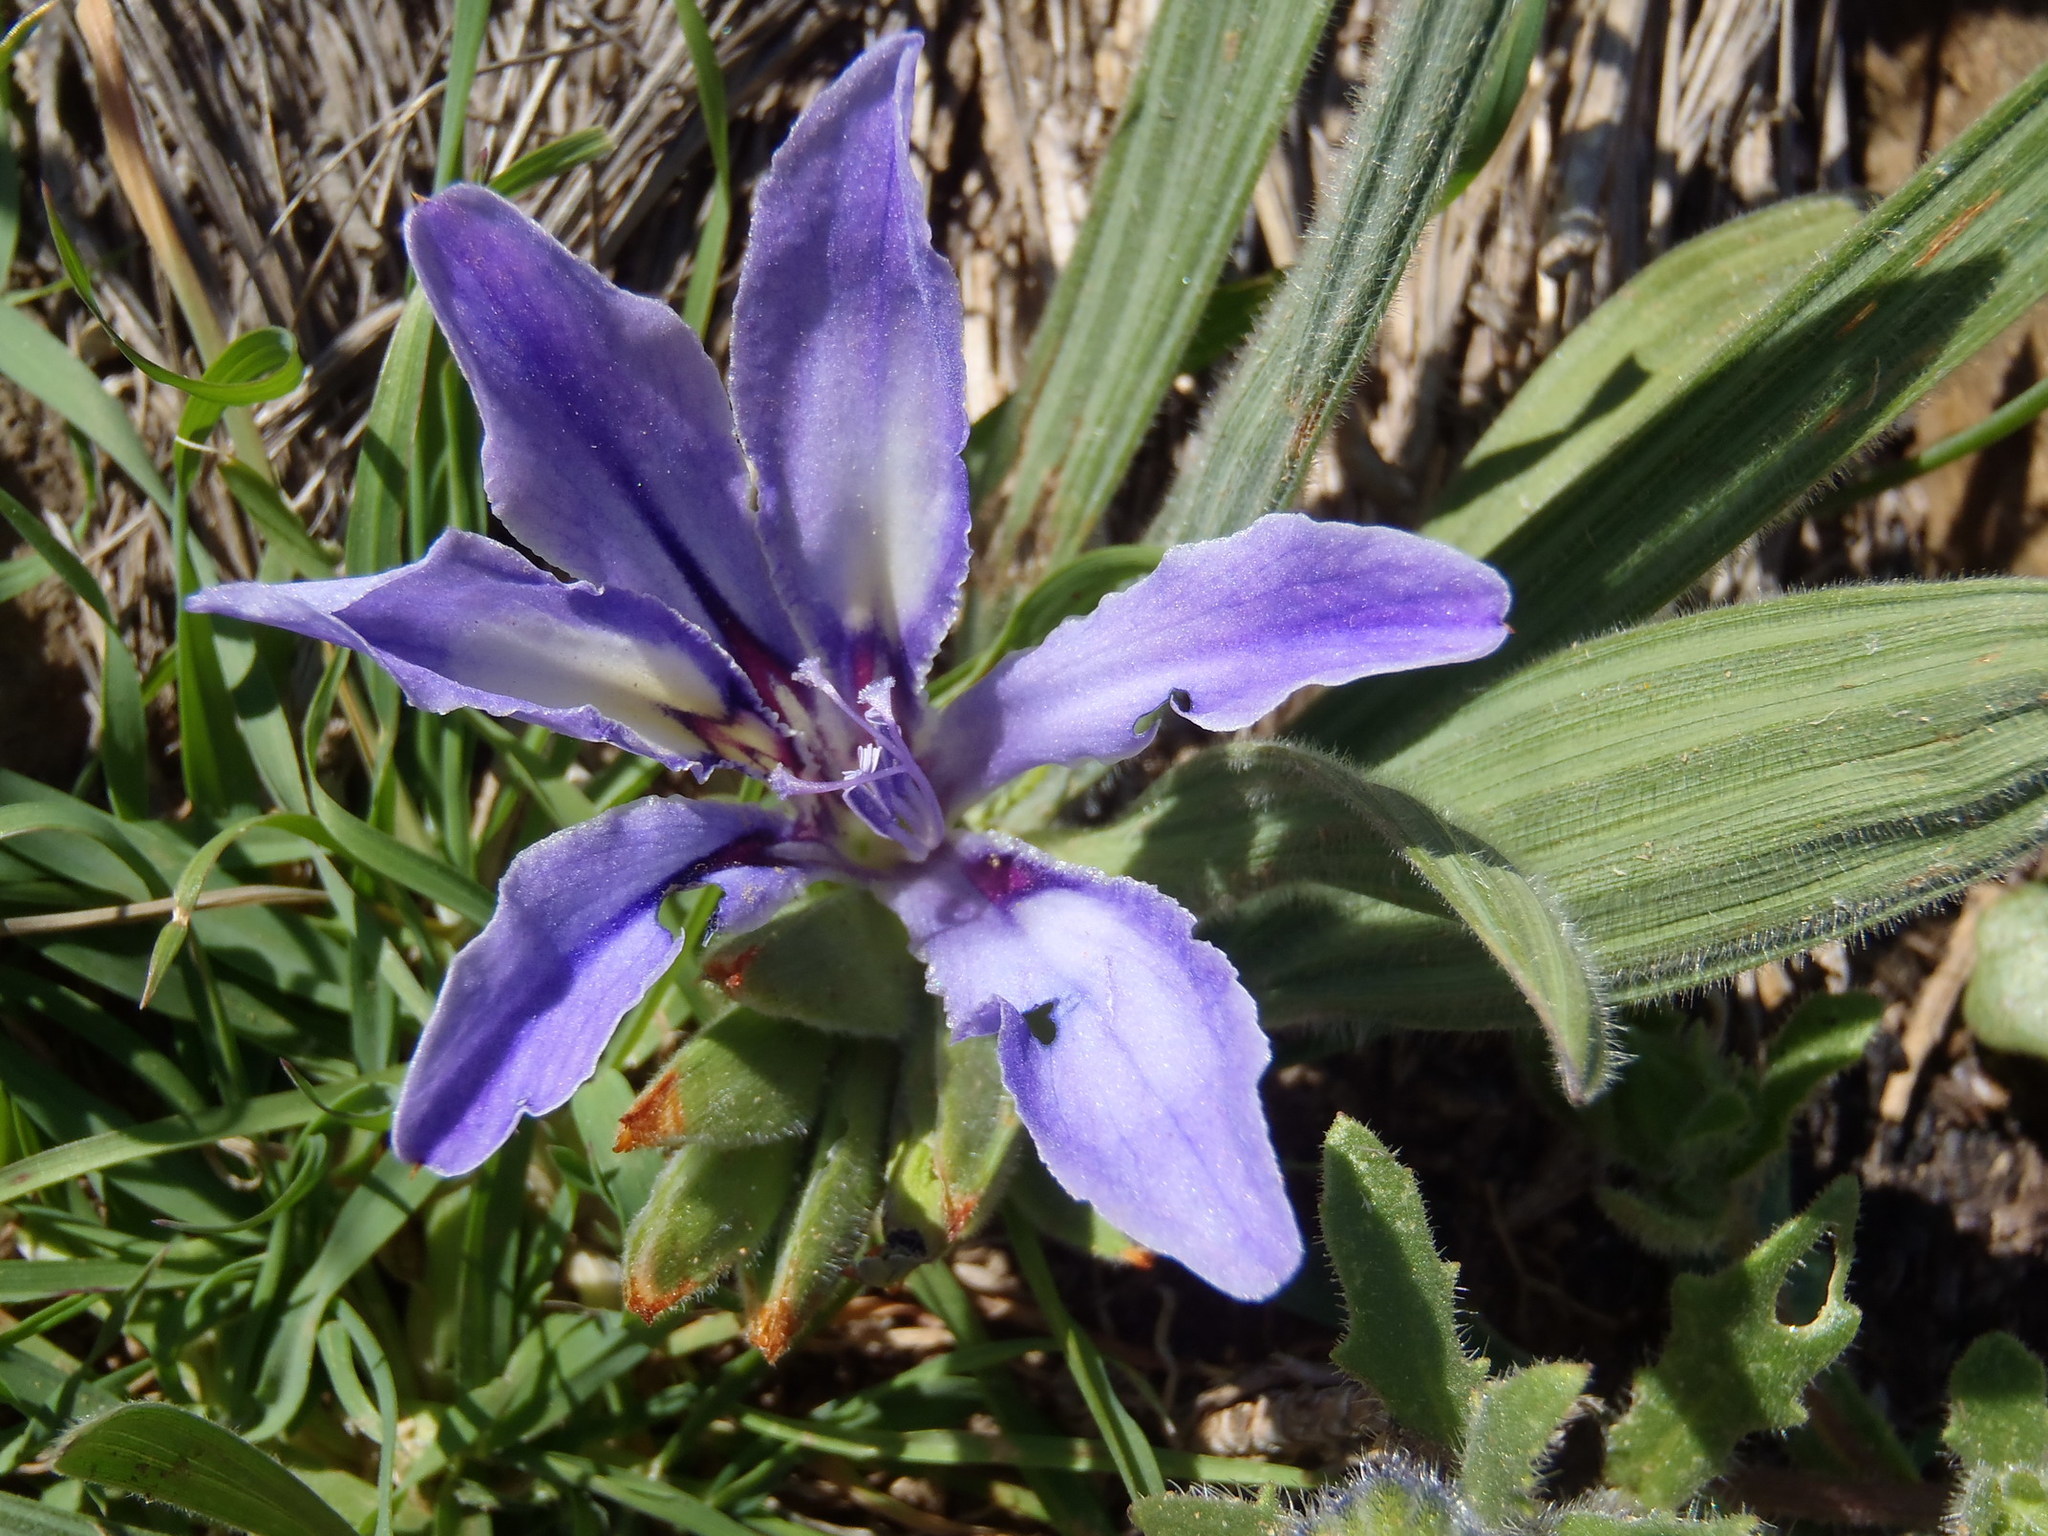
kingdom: Plantae
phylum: Tracheophyta
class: Liliopsida
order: Asparagales
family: Iridaceae
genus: Babiana
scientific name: Babiana ambigua
